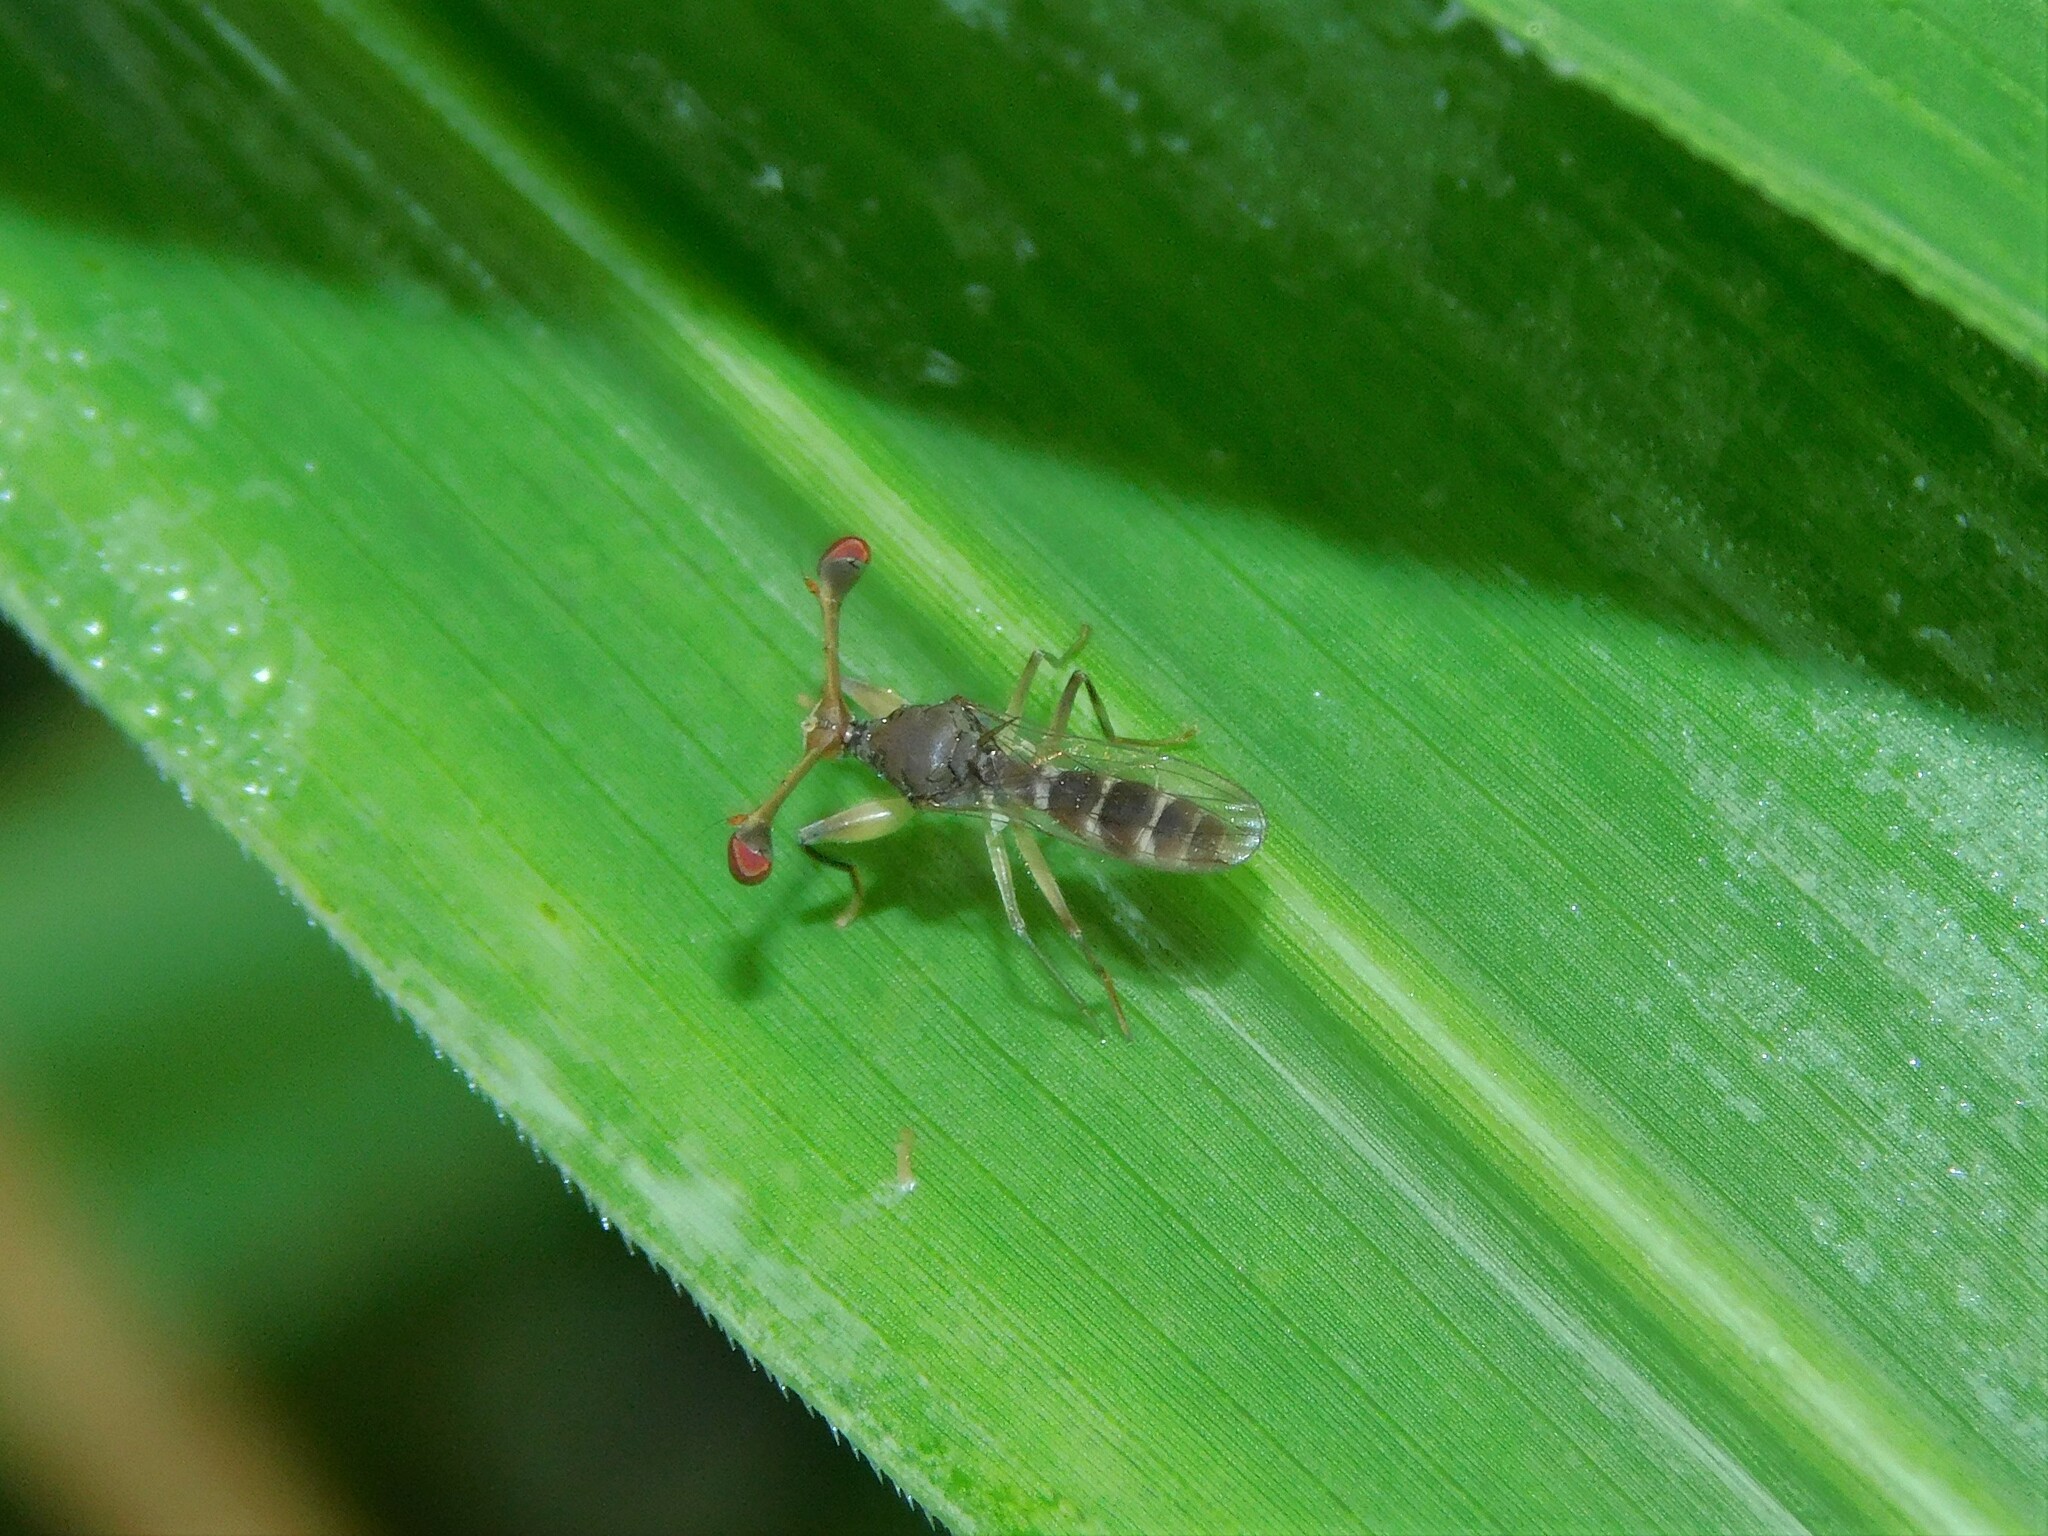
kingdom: Animalia
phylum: Arthropoda
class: Insecta
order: Diptera
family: Diopsidae
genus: Diasemopsis
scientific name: Diasemopsis signata
